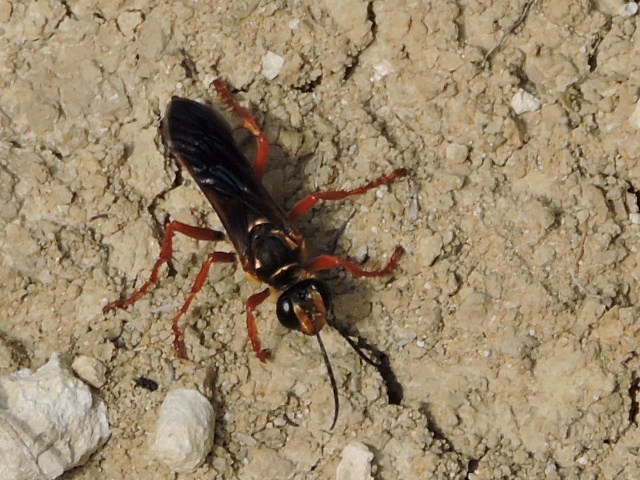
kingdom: Animalia
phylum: Arthropoda
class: Insecta
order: Hymenoptera
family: Sphecidae
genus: Sphex
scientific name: Sphex ichneumoneus
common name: Great golden digger wasp
